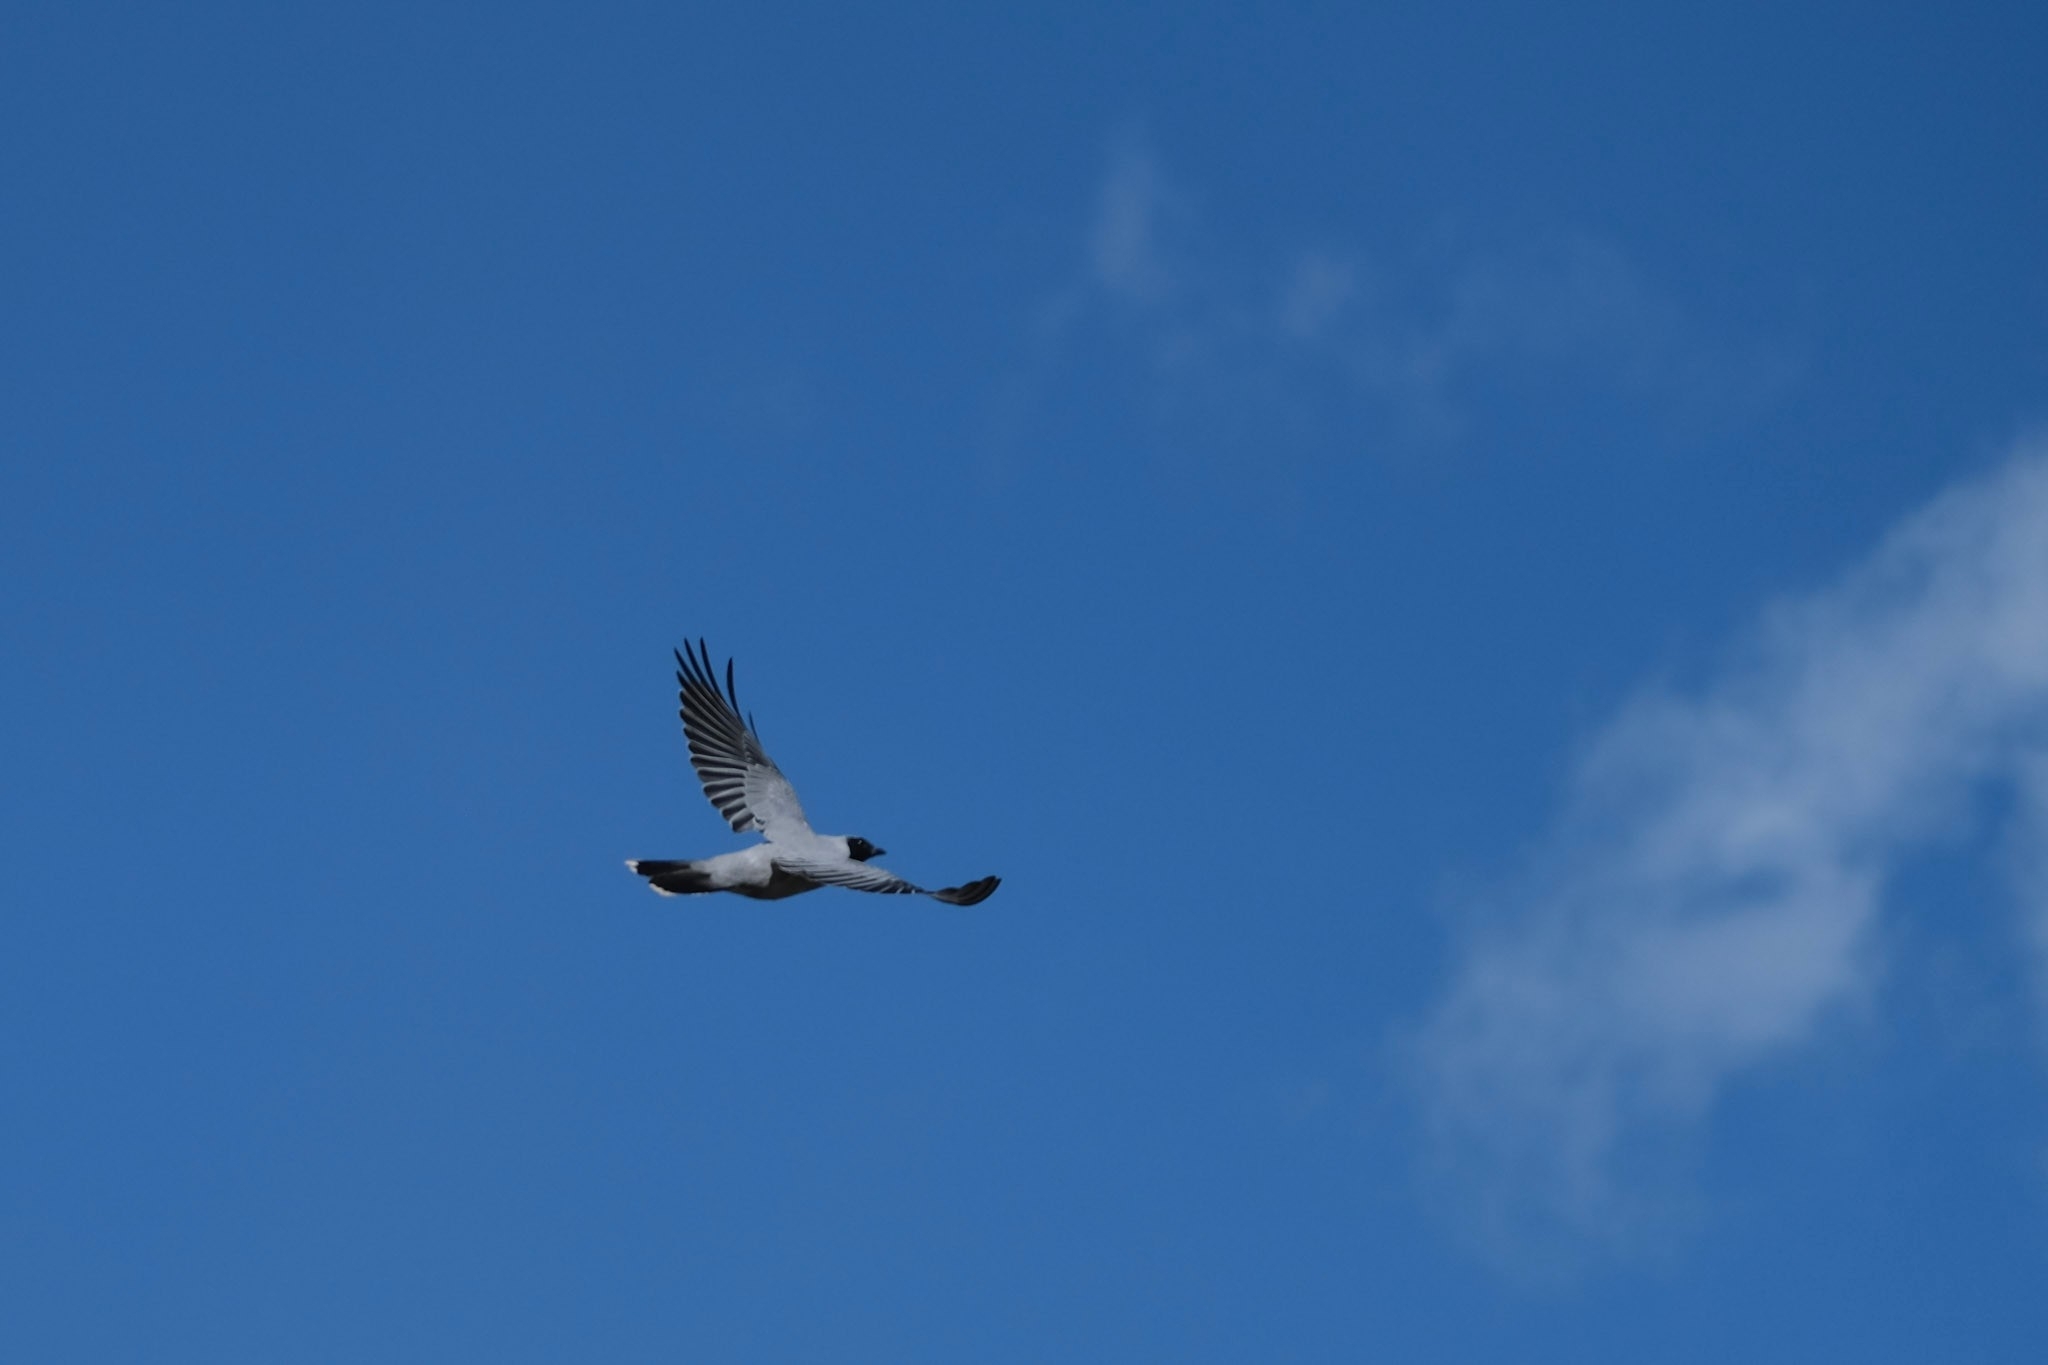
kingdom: Animalia
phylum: Chordata
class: Aves
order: Passeriformes
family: Campephagidae
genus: Coracina
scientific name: Coracina novaehollandiae
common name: Black-faced cuckooshrike
